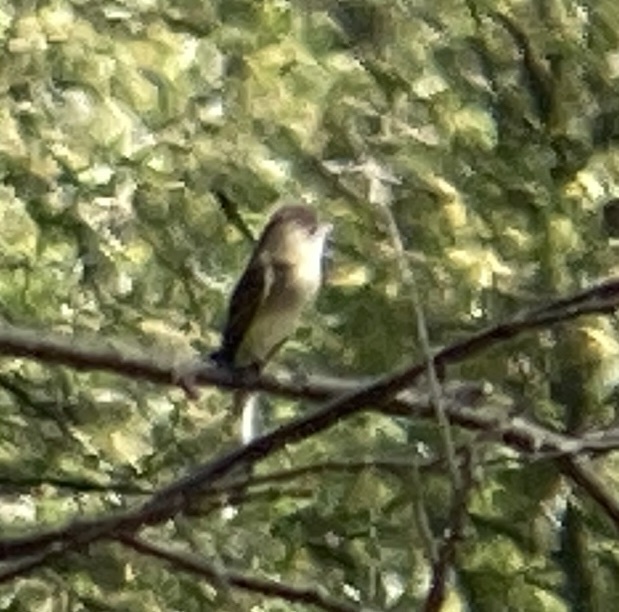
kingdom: Animalia
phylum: Chordata
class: Aves
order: Passeriformes
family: Tyrannidae
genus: Empidonax
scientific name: Empidonax traillii
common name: Willow flycatcher
